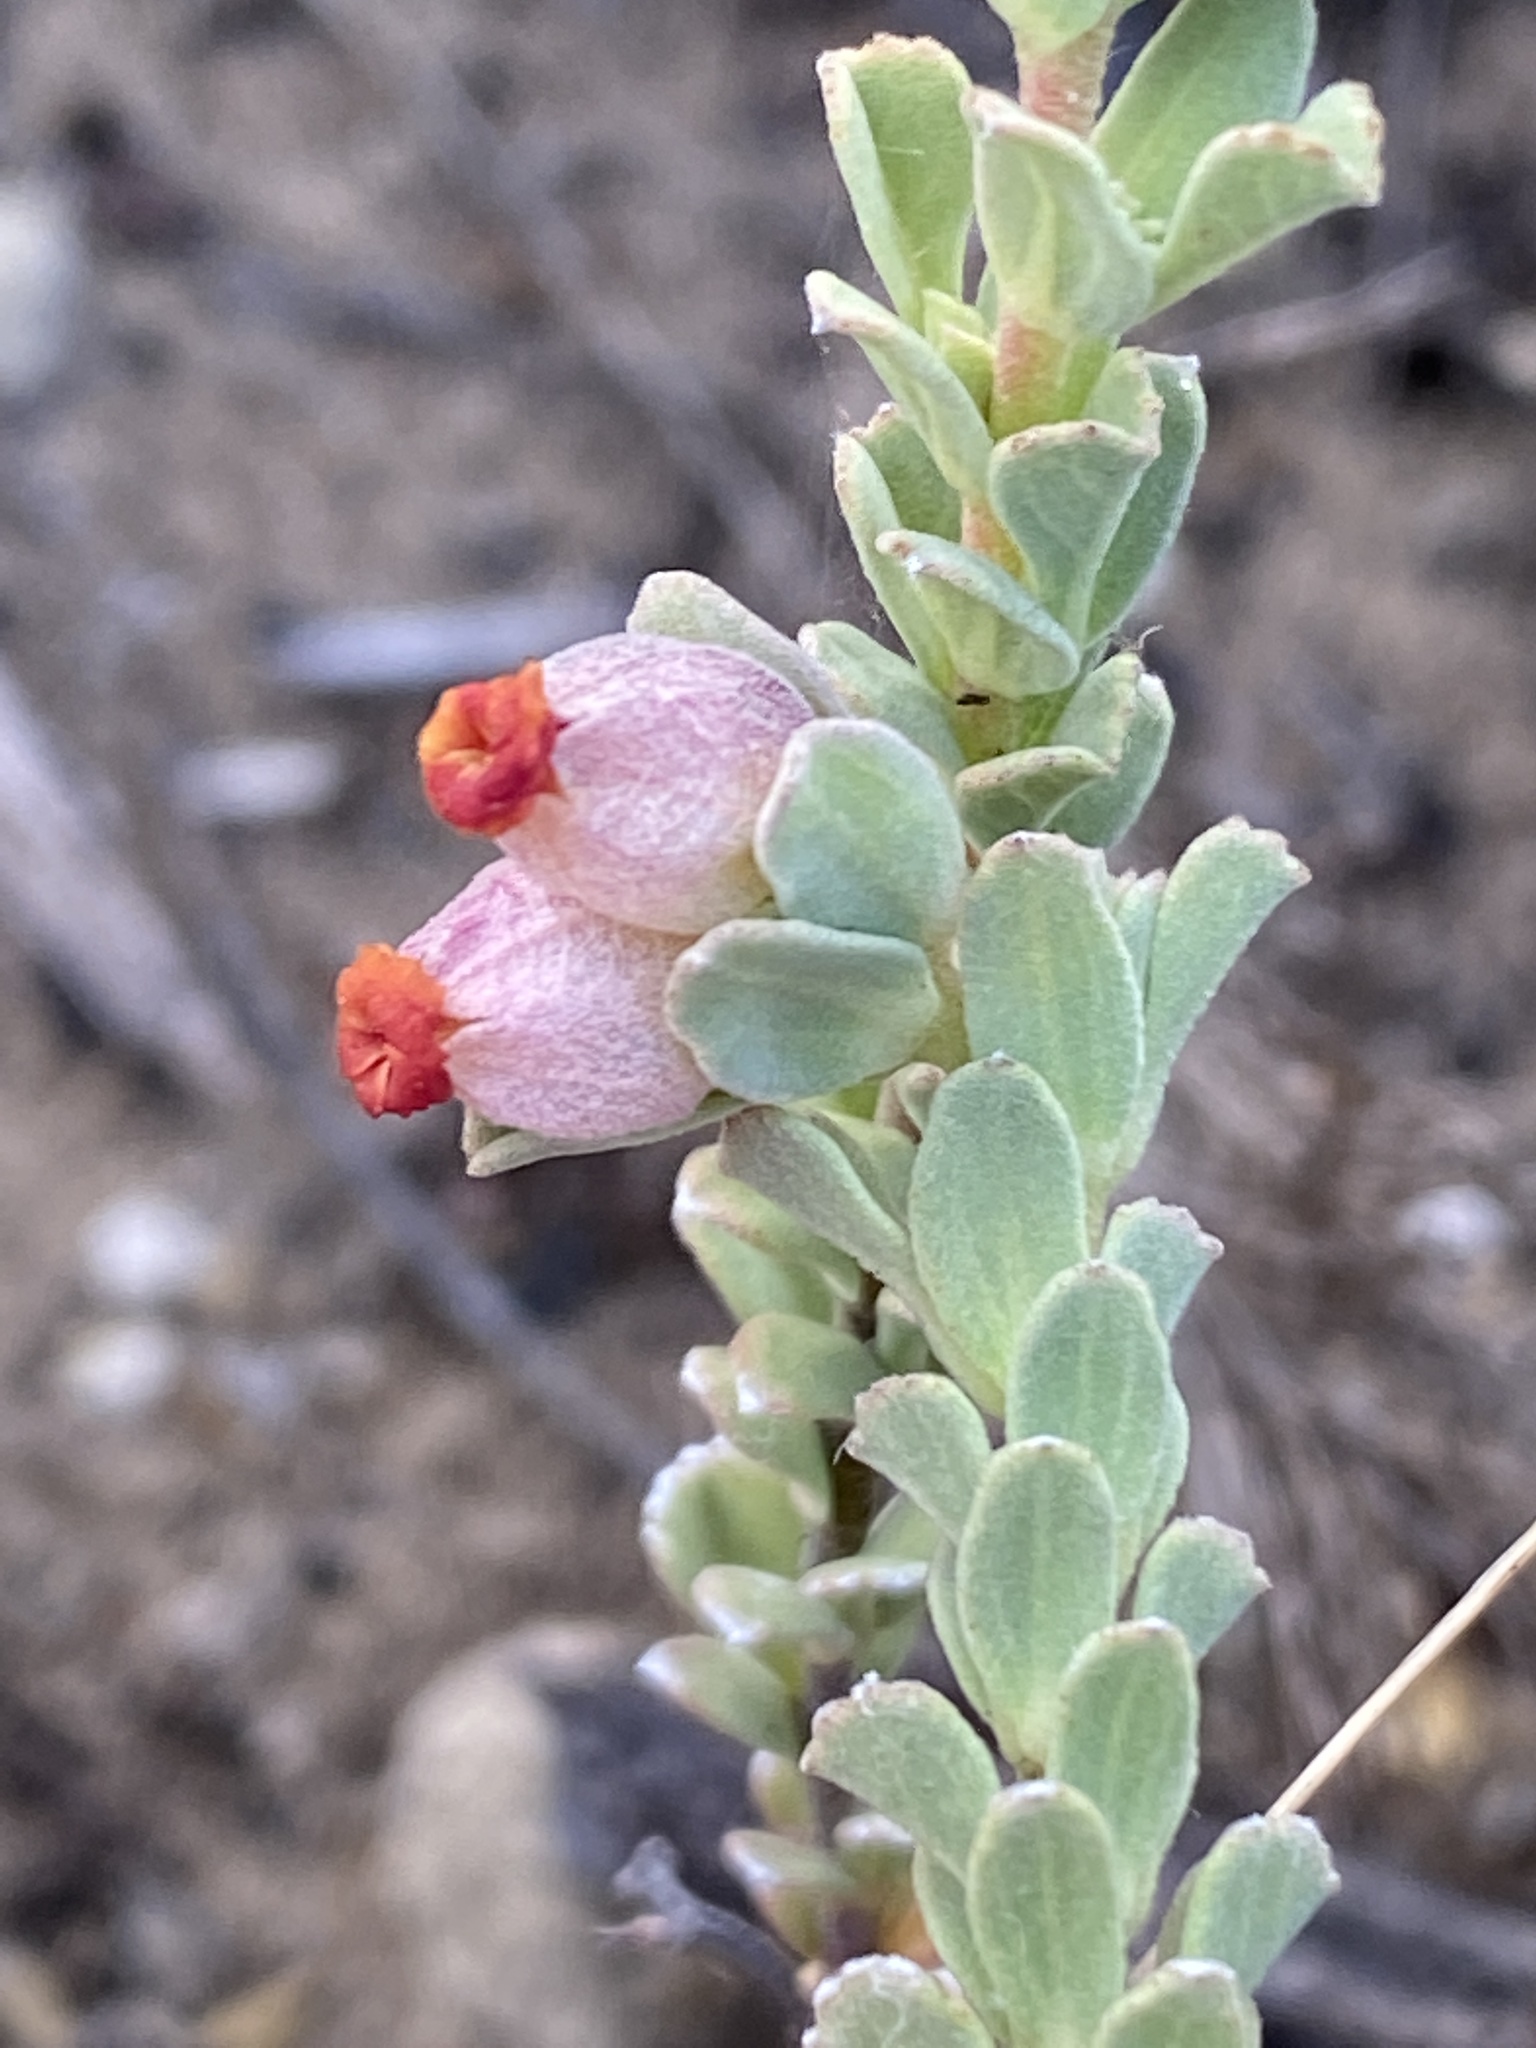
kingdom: Plantae
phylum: Tracheophyta
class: Magnoliopsida
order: Malvales
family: Malvaceae
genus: Hermannia
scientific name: Hermannia trifoliata
